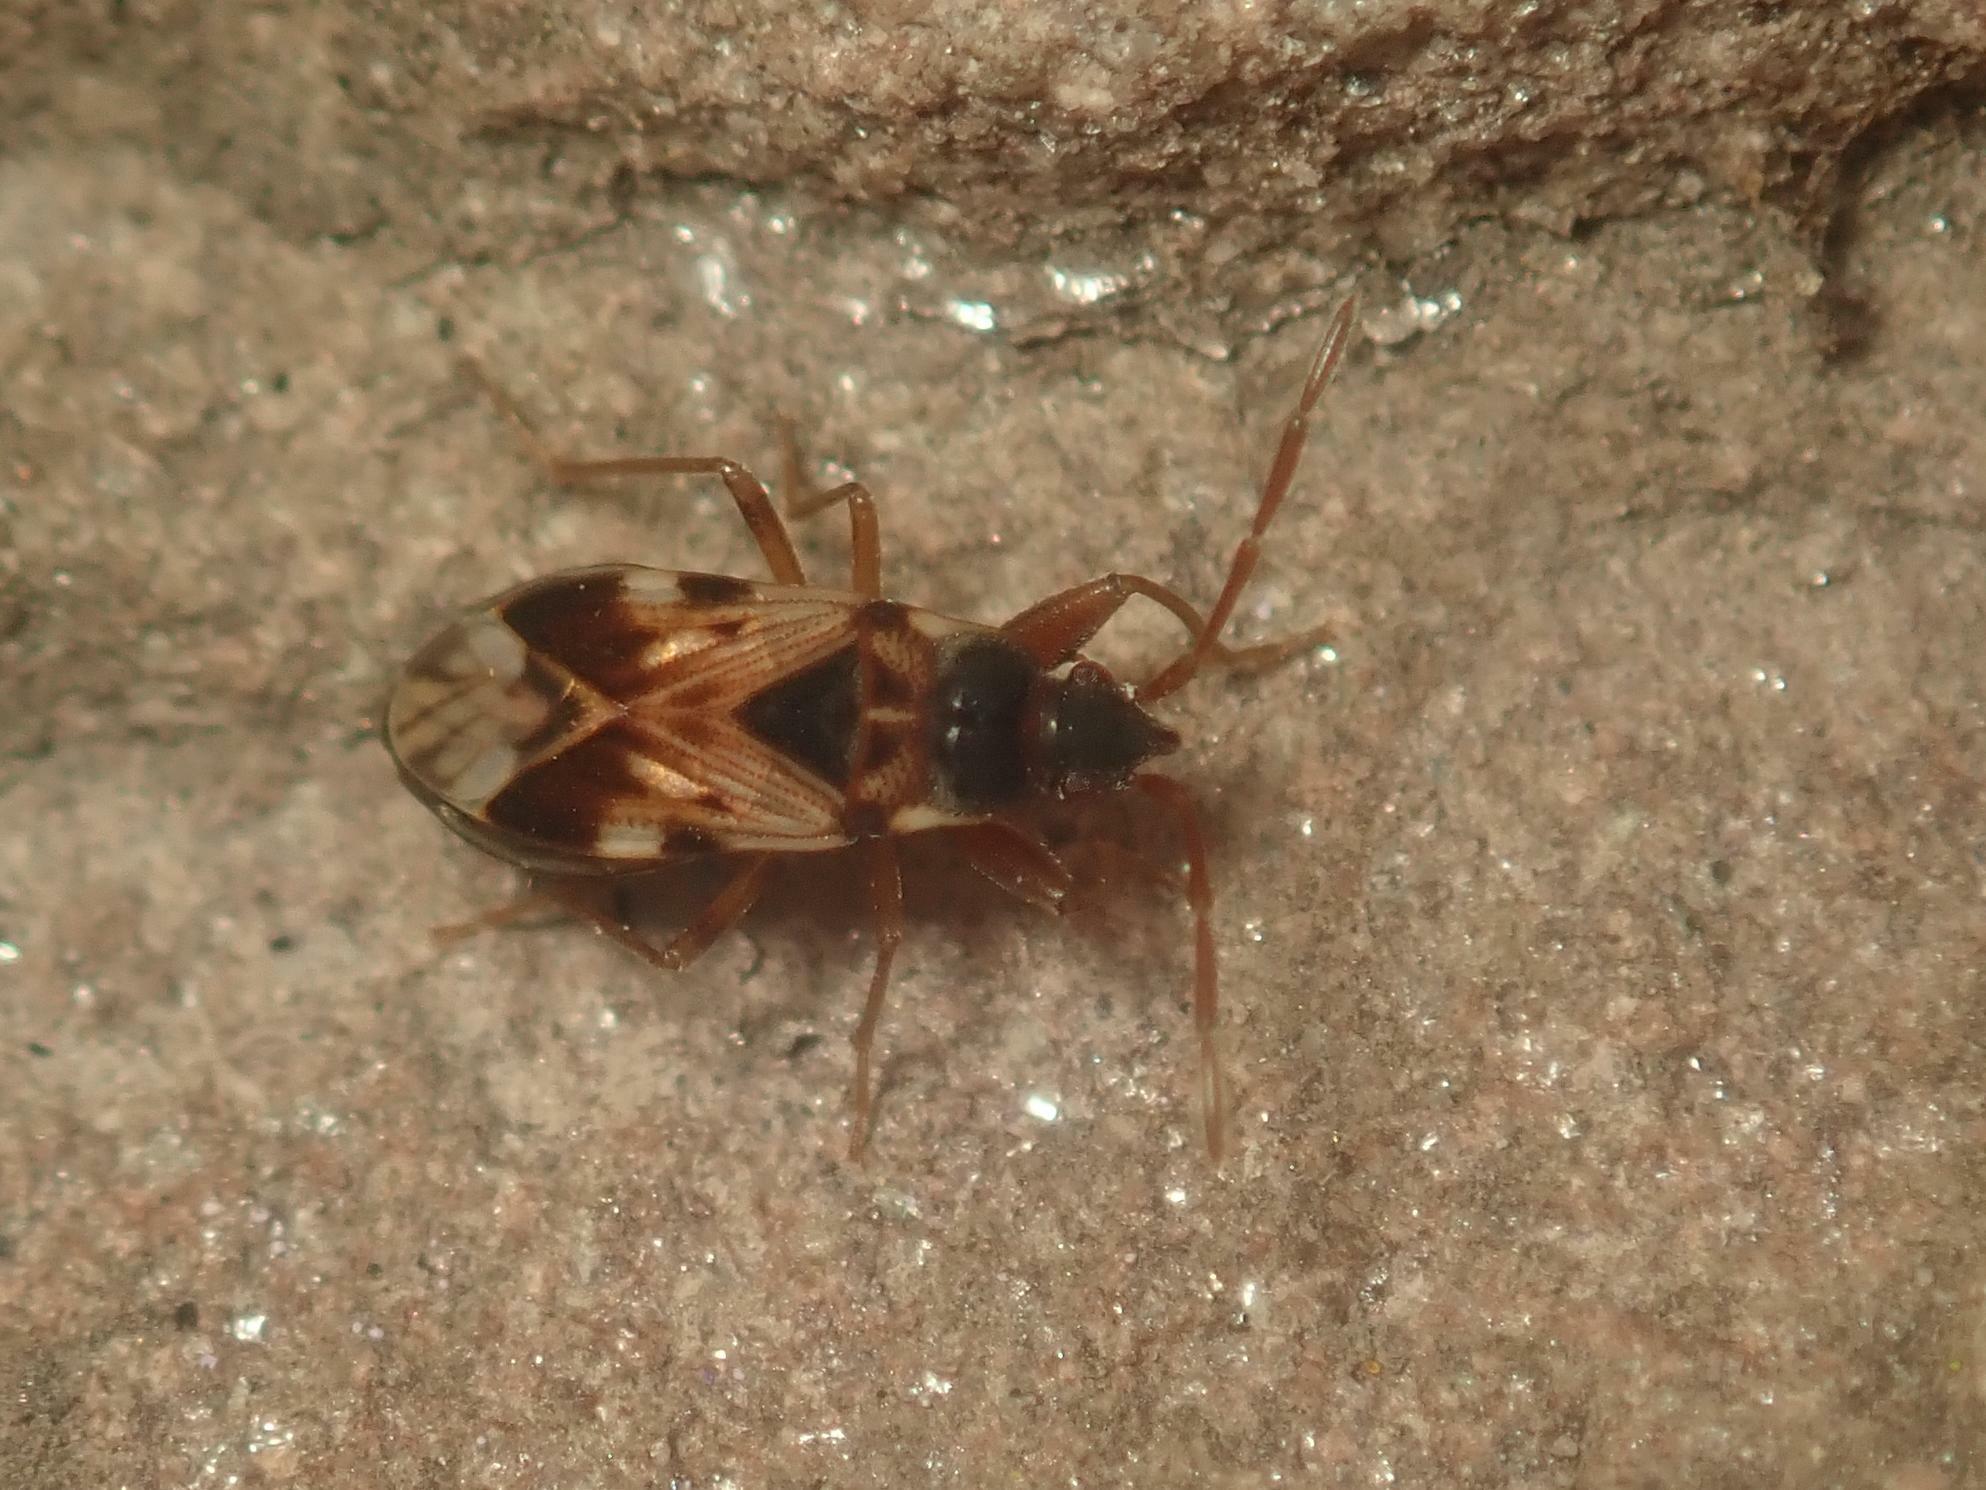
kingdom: Animalia
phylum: Arthropoda
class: Insecta
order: Hemiptera
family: Rhyparochromidae
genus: Scolopostethus
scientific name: Scolopostethus pictus
